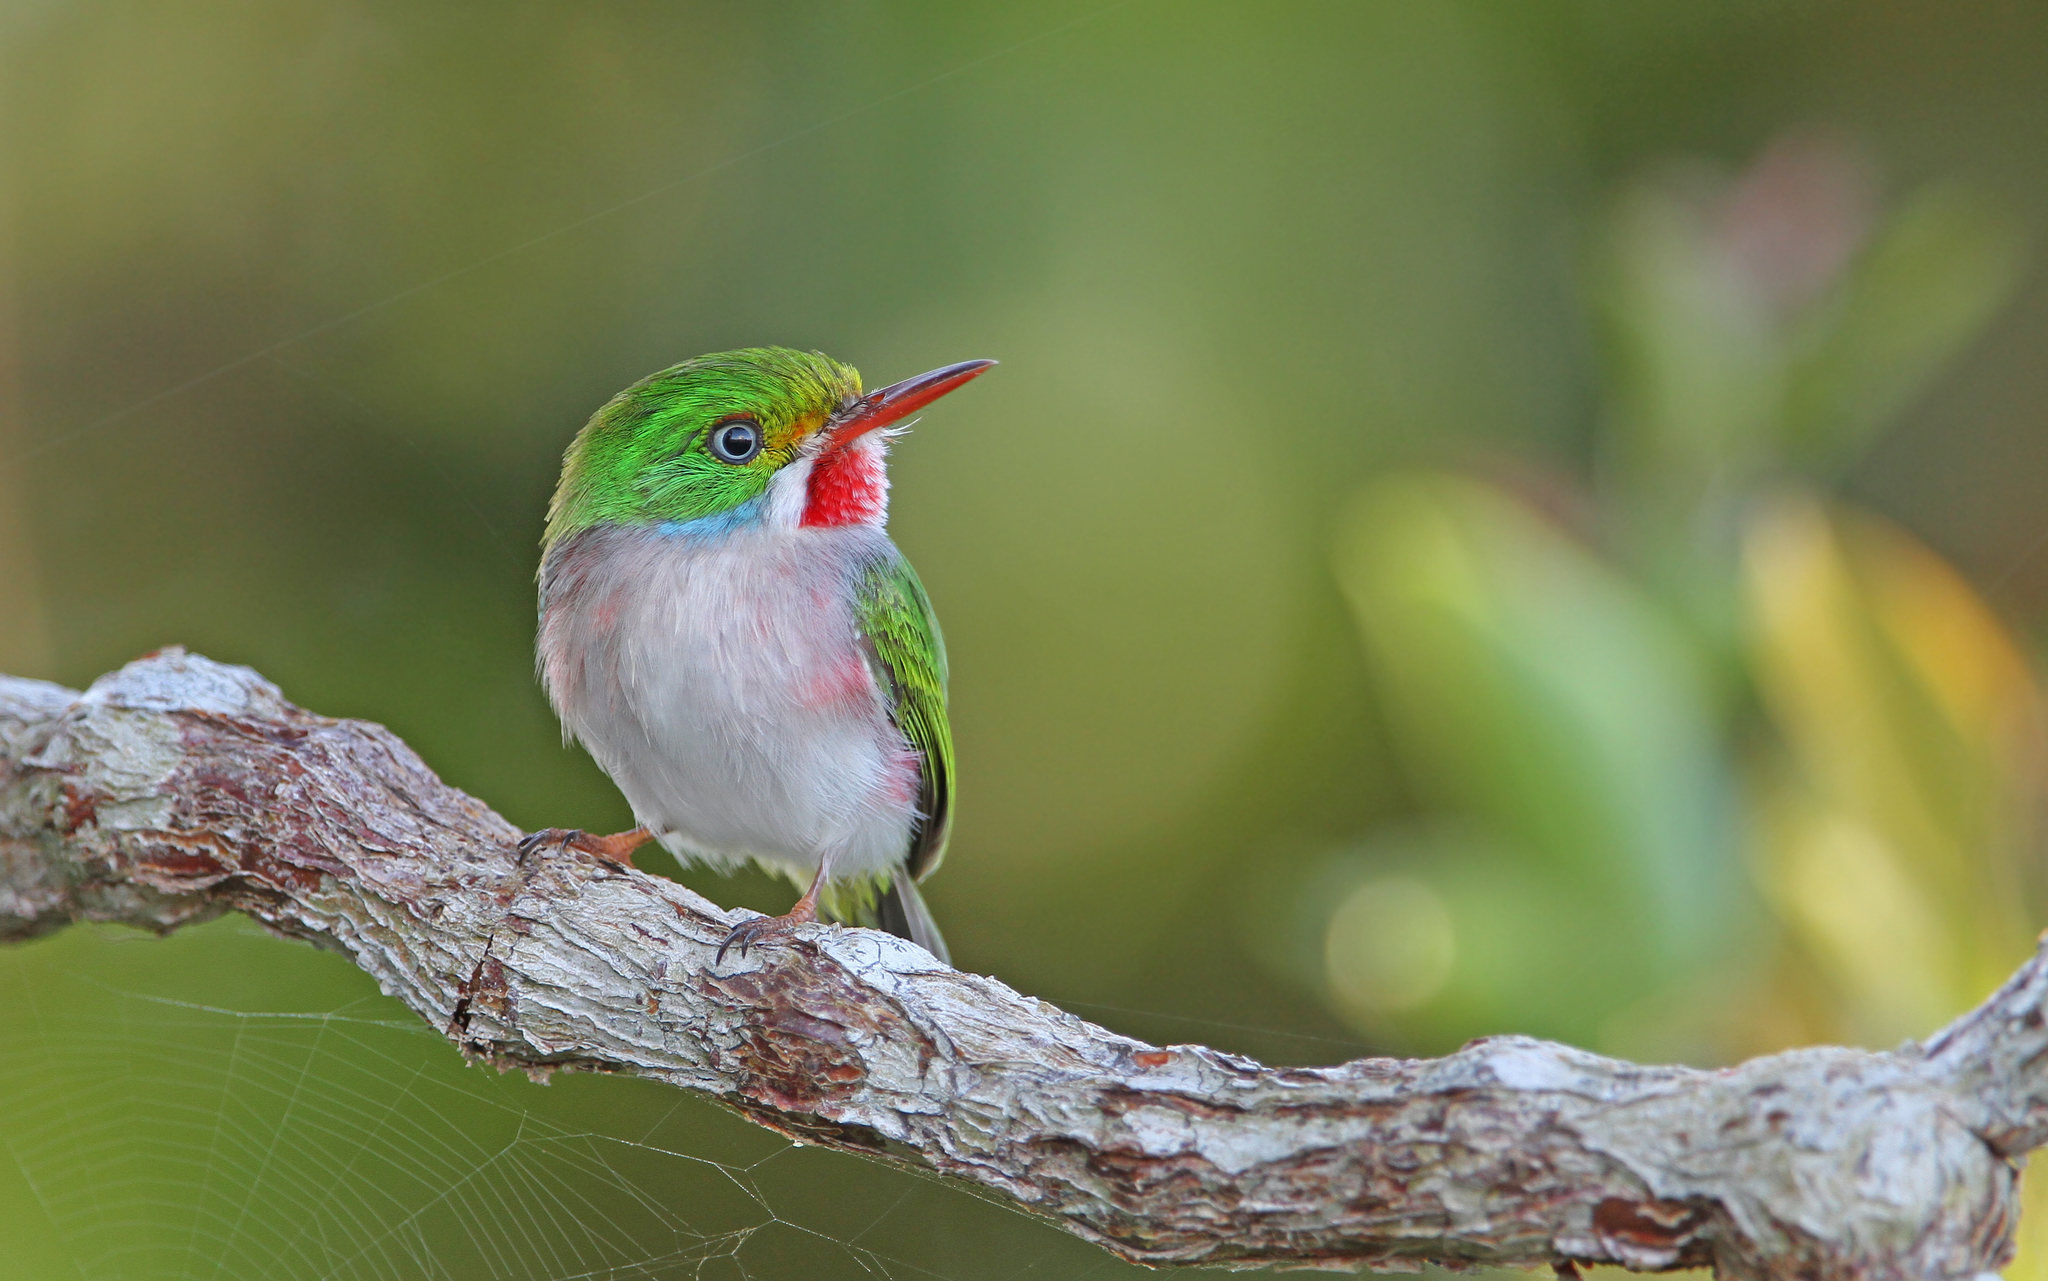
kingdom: Animalia
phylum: Chordata
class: Aves
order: Coraciiformes
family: Todidae
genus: Todus
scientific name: Todus multicolor
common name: Cuban tody
